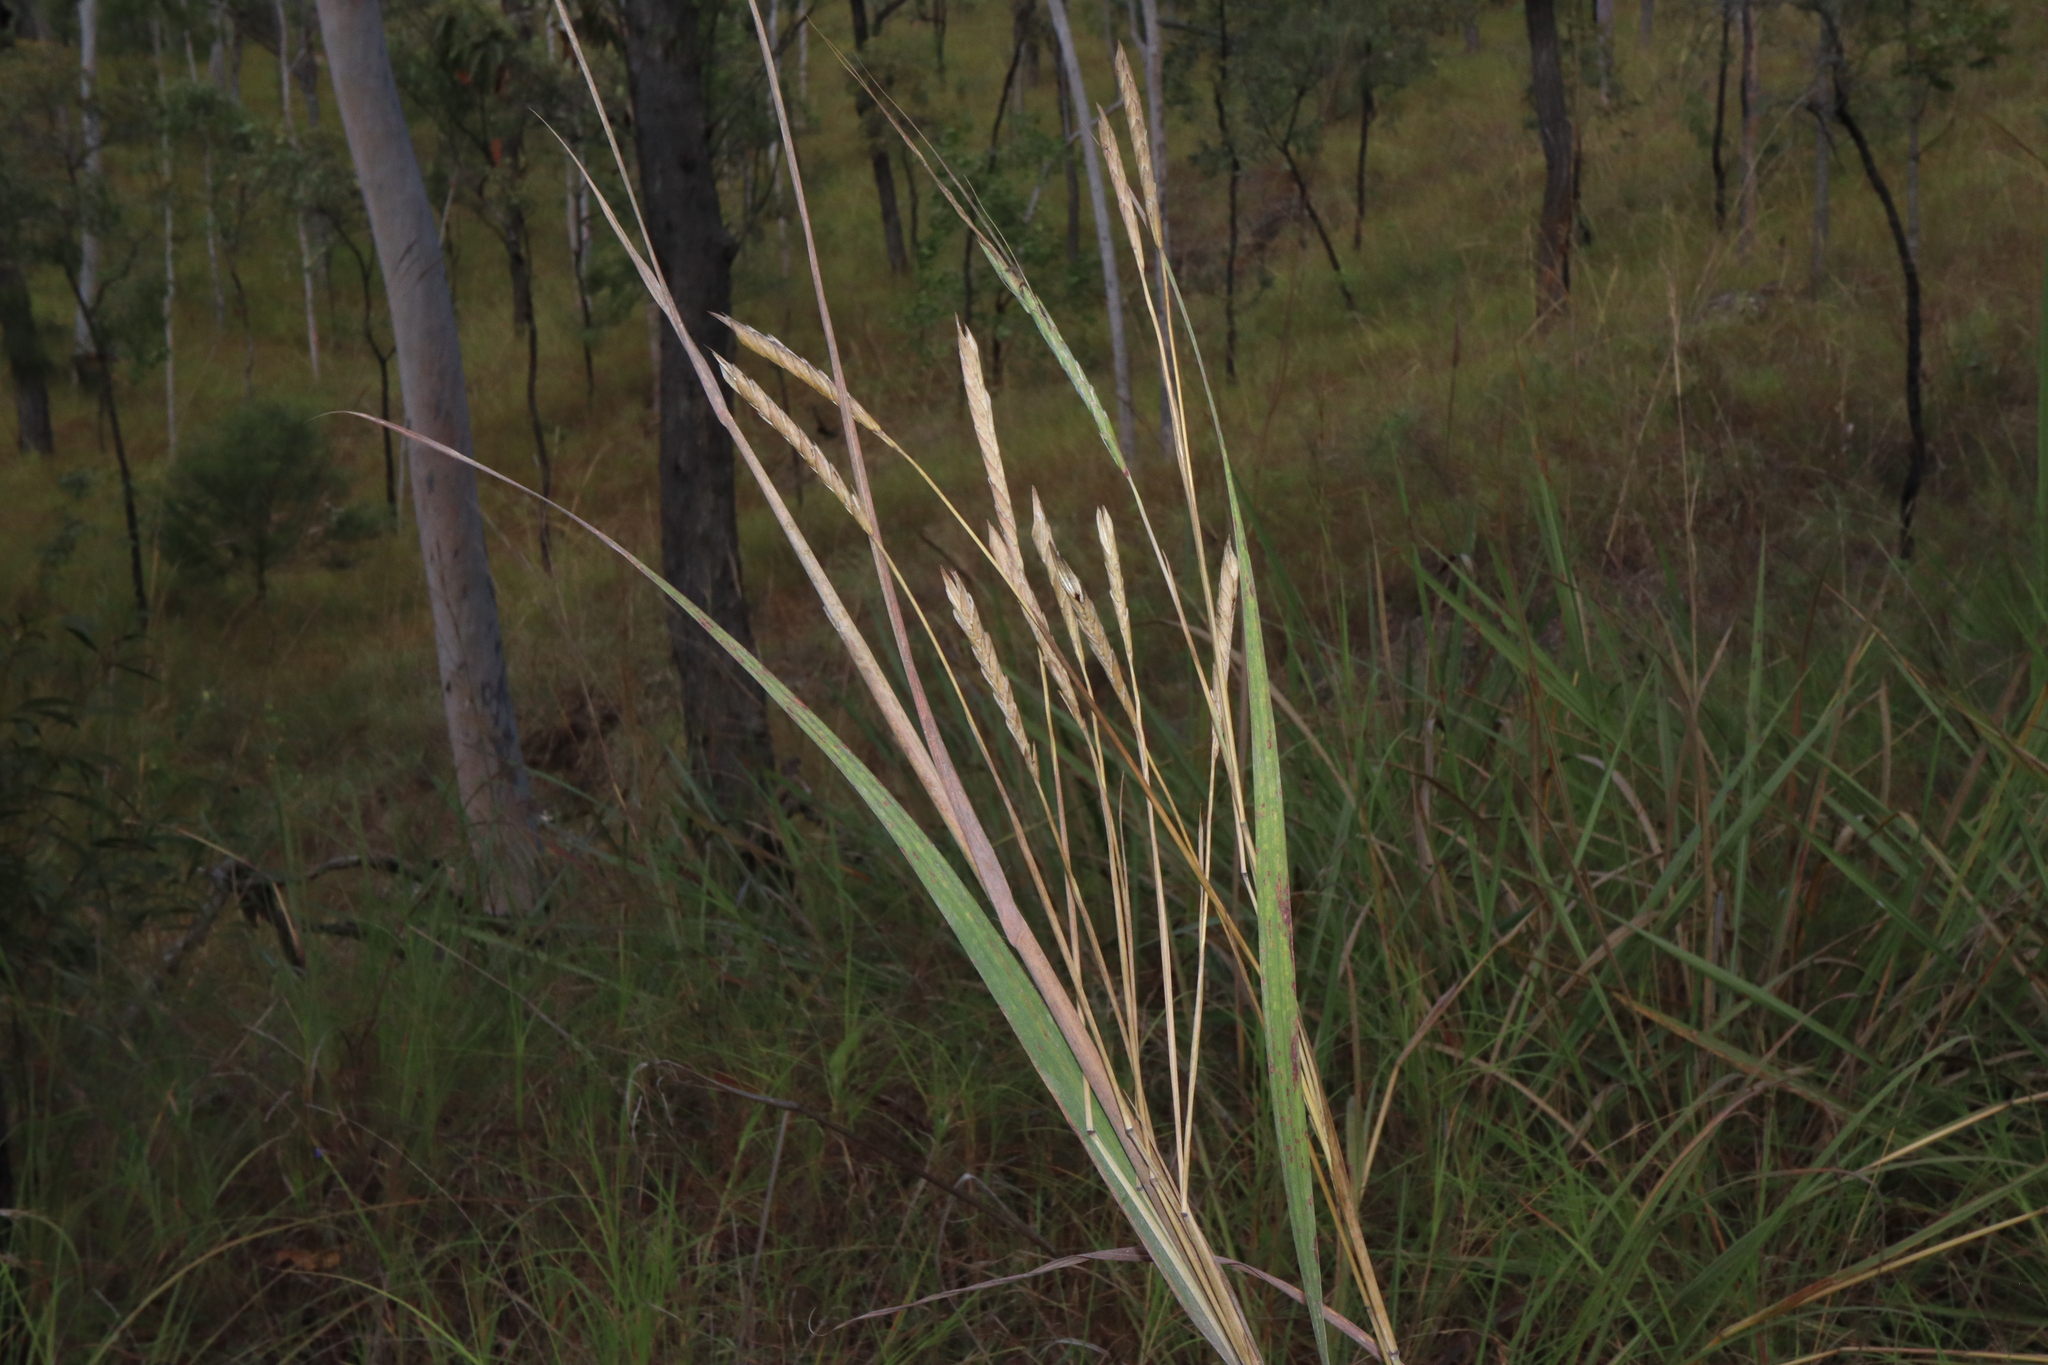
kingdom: Plantae
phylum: Tracheophyta
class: Liliopsida
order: Poales
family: Poaceae
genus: Heteropogon
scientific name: Heteropogon triticeus
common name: Sugar grass
